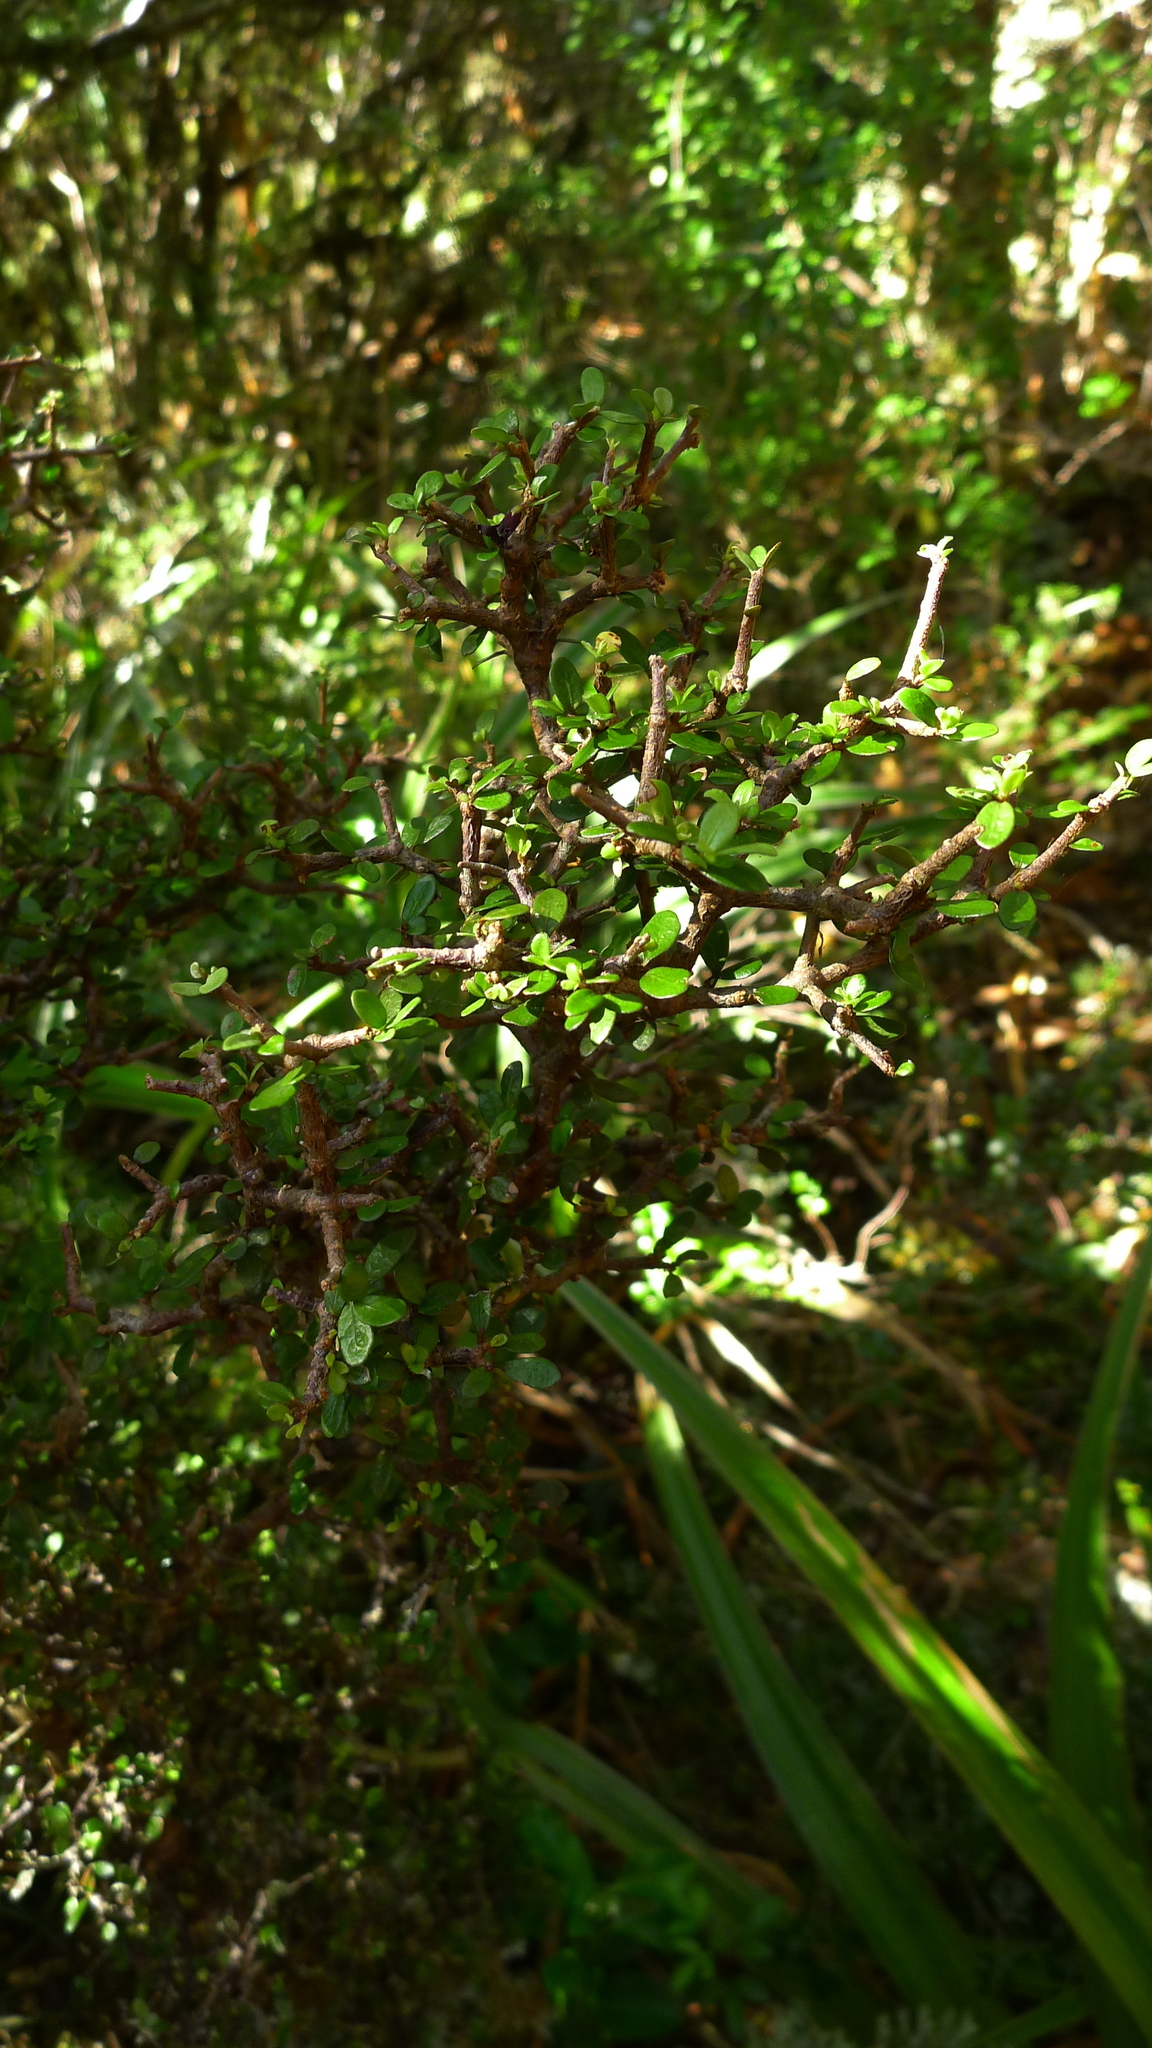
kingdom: Plantae
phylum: Tracheophyta
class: Magnoliopsida
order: Apiales
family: Pittosporaceae
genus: Pittosporum
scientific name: Pittosporum rigidum
